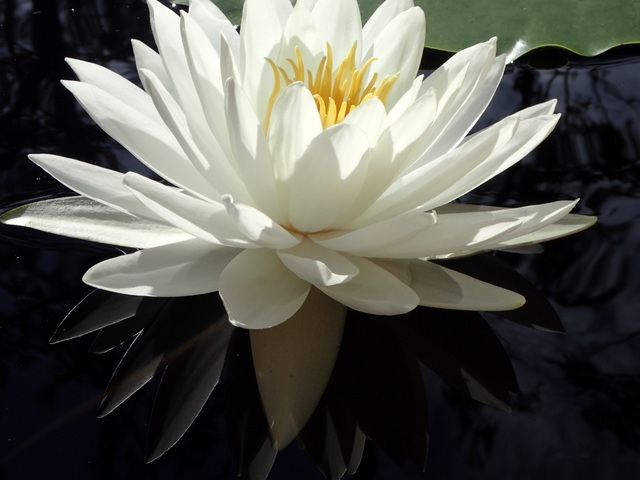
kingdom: Plantae
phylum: Tracheophyta
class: Magnoliopsida
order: Nymphaeales
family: Nymphaeaceae
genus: Nymphaea
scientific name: Nymphaea odorata
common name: Fragrant water-lily
